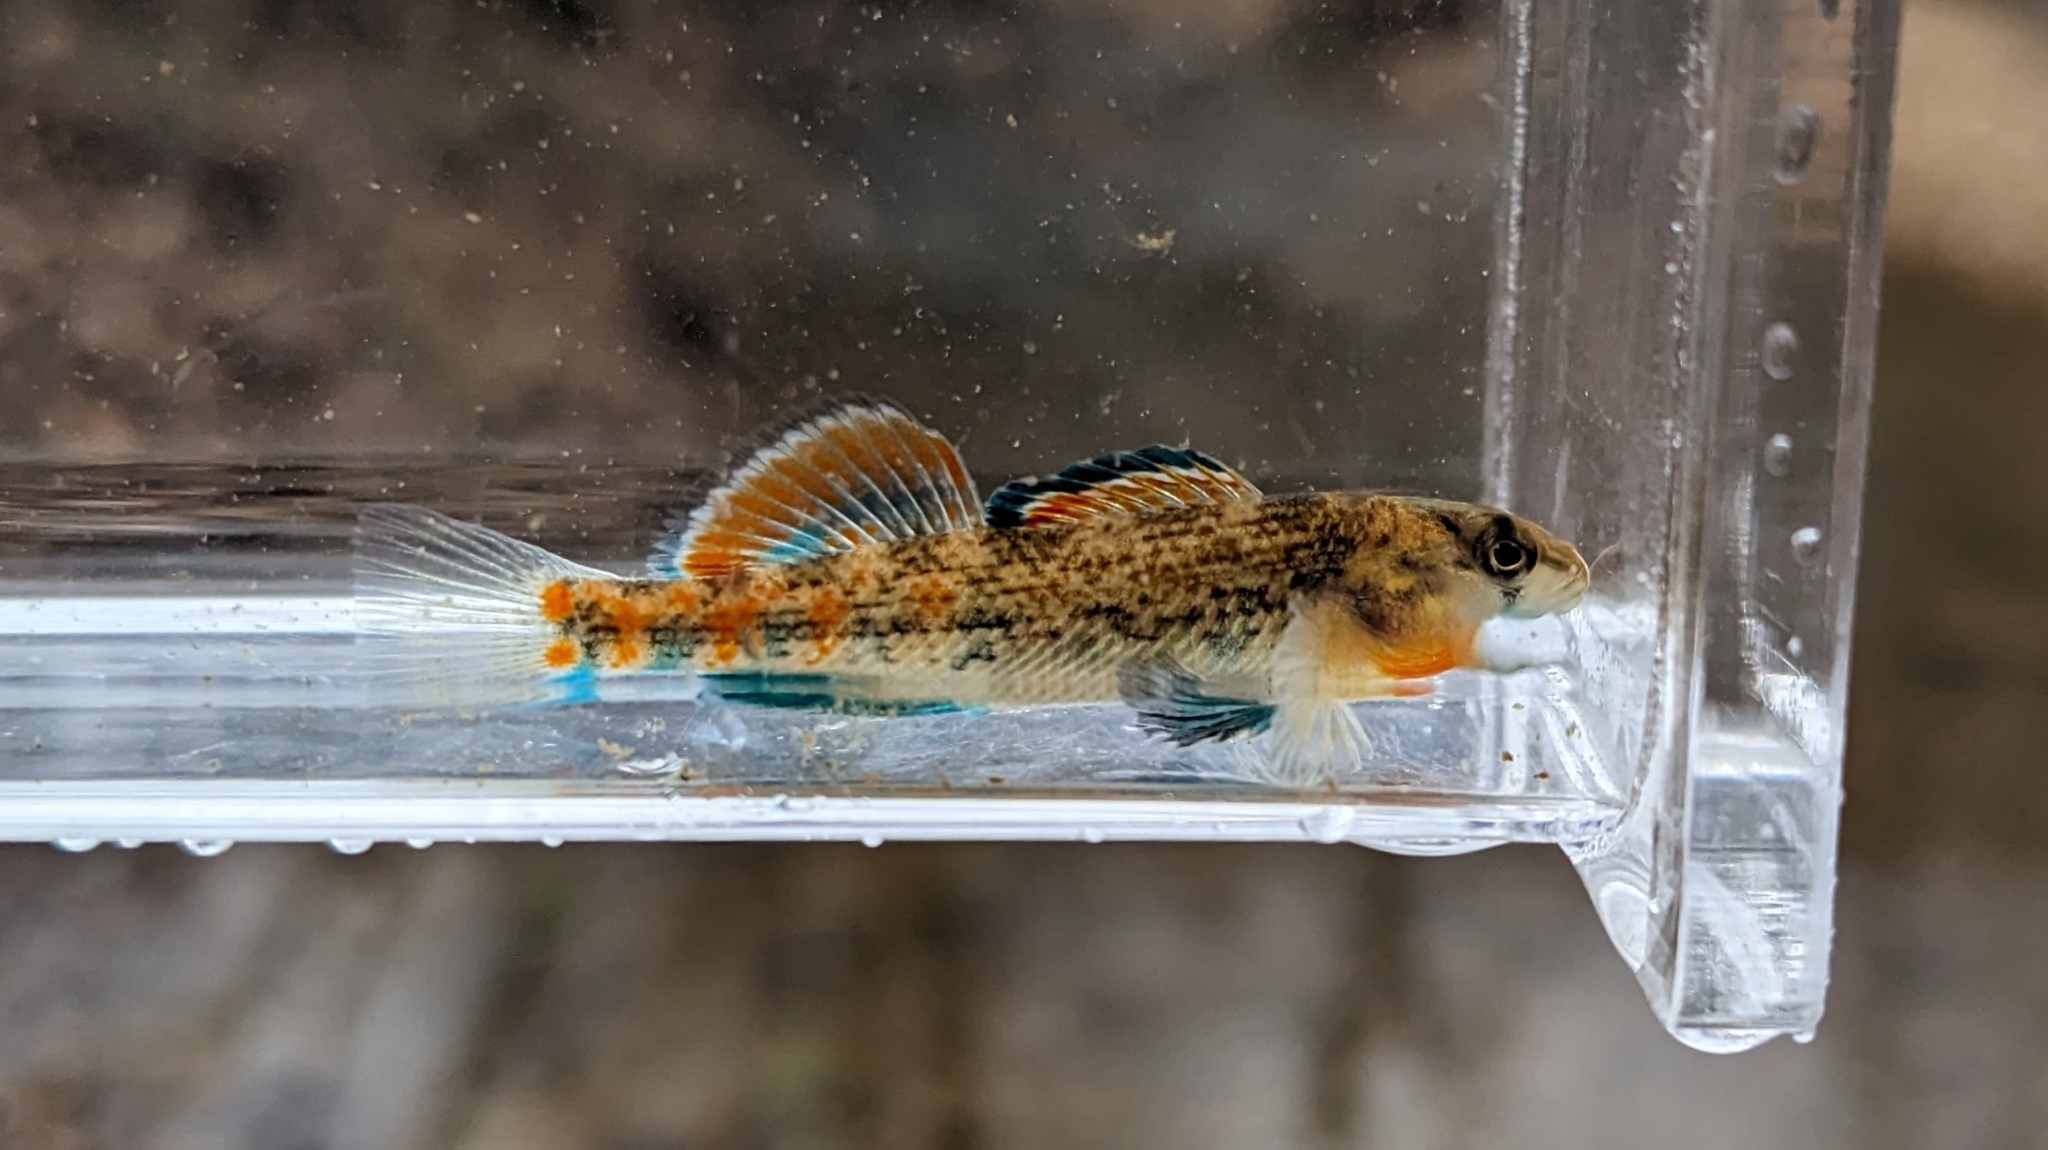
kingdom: Animalia
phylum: Chordata
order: Perciformes
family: Percidae
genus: Etheostoma
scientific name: Etheostoma bison
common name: Buffalo darter
